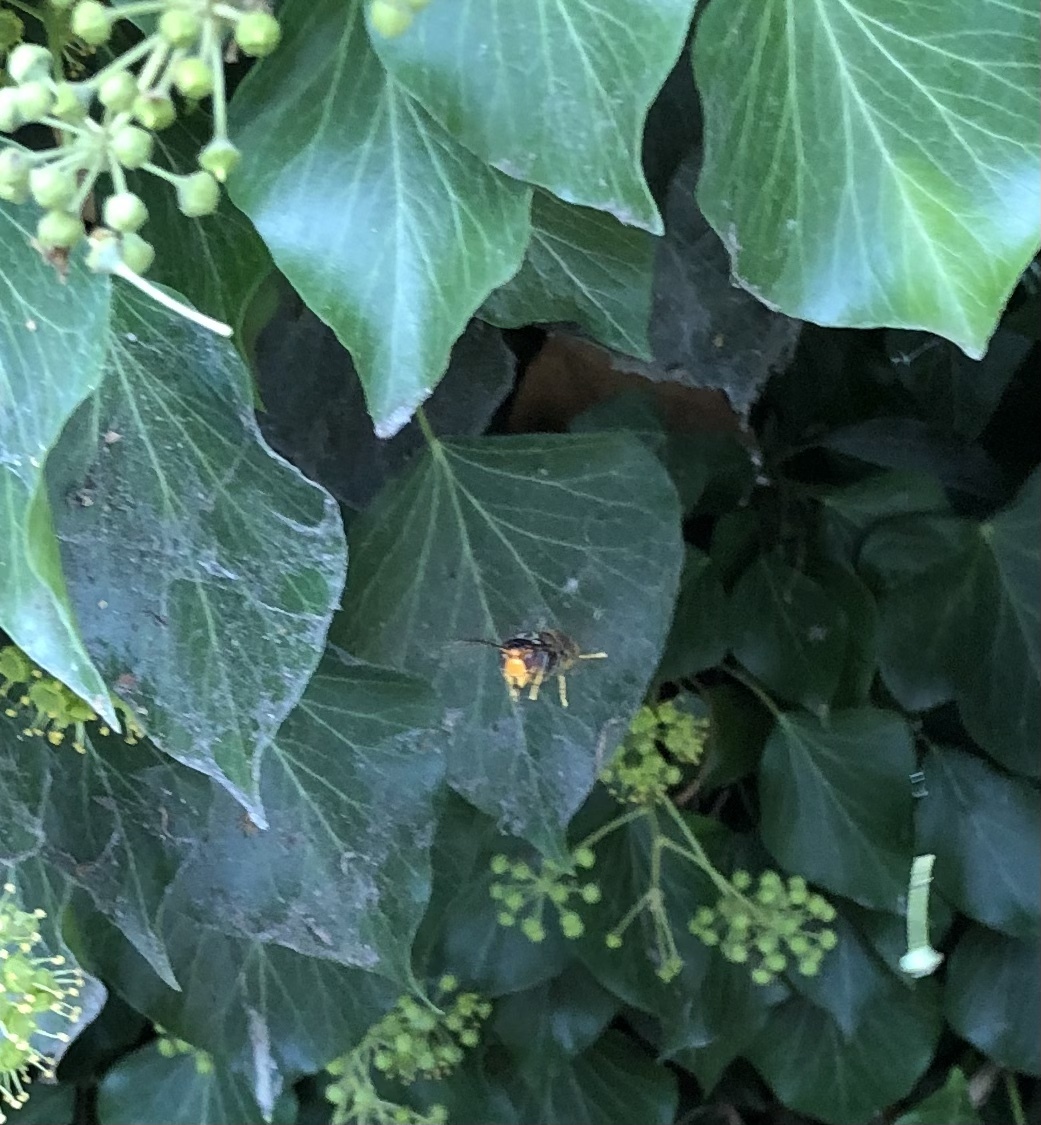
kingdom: Animalia
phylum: Arthropoda
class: Insecta
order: Hymenoptera
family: Vespidae
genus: Vespa
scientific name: Vespa velutina
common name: Asian hornet
